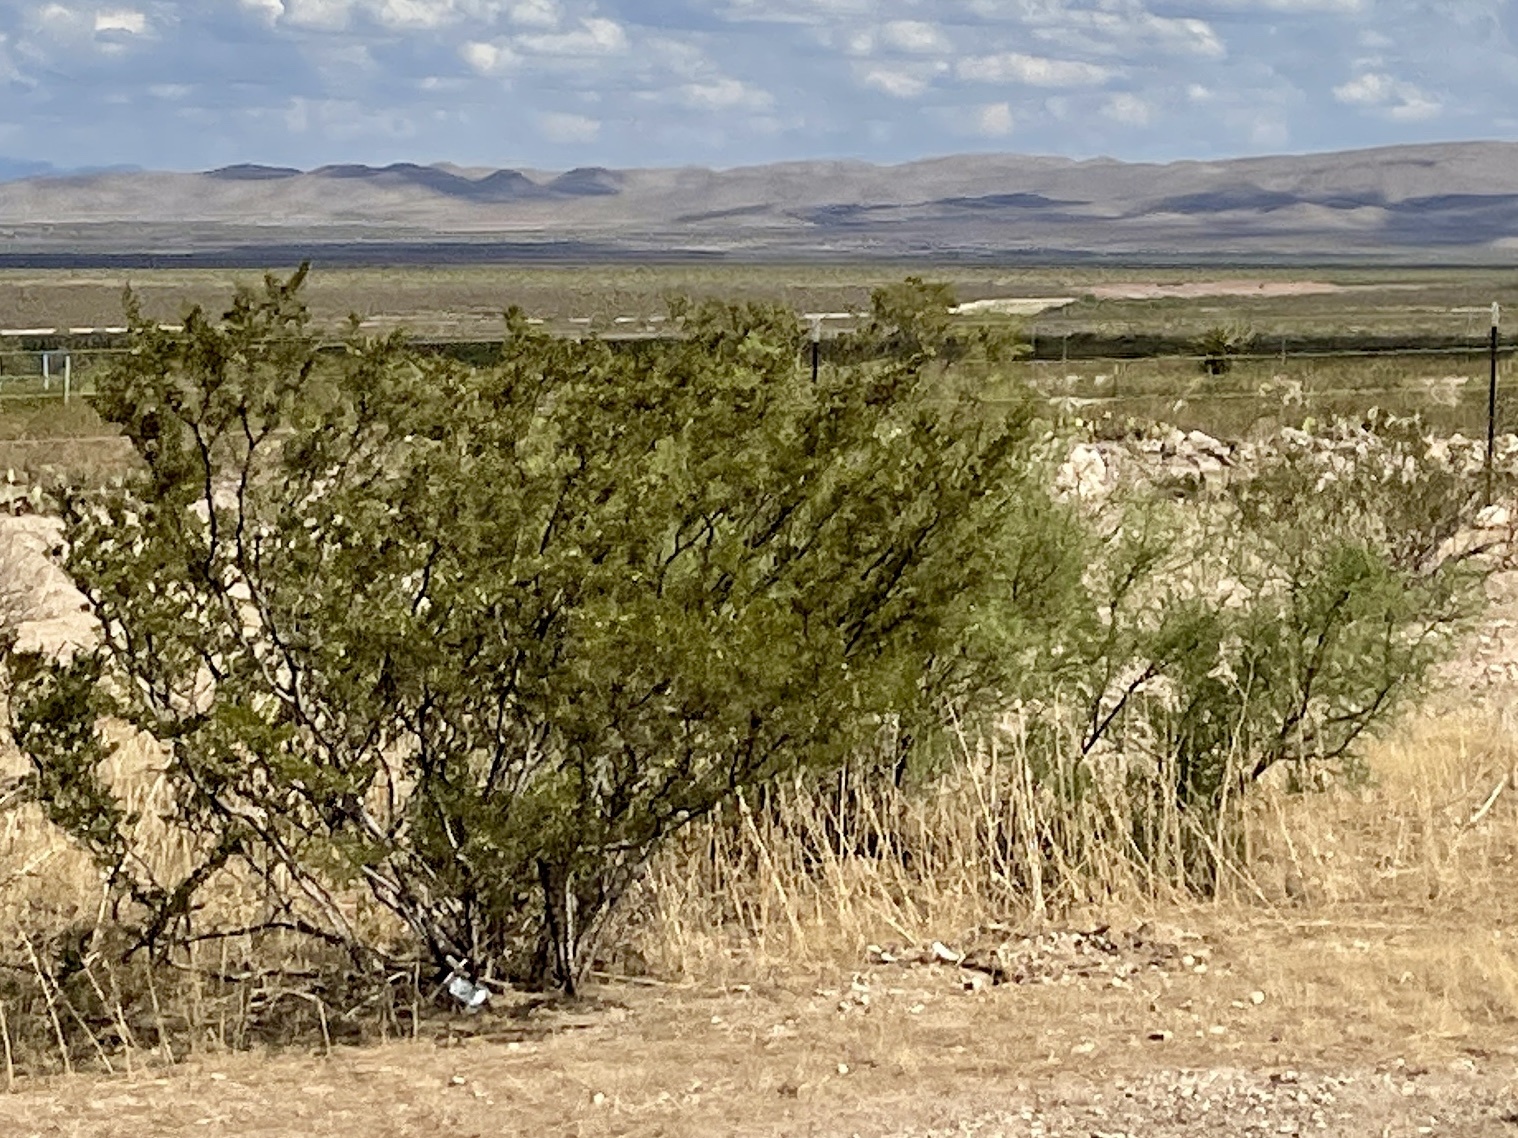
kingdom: Plantae
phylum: Tracheophyta
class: Magnoliopsida
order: Zygophyllales
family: Zygophyllaceae
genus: Larrea
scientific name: Larrea tridentata
